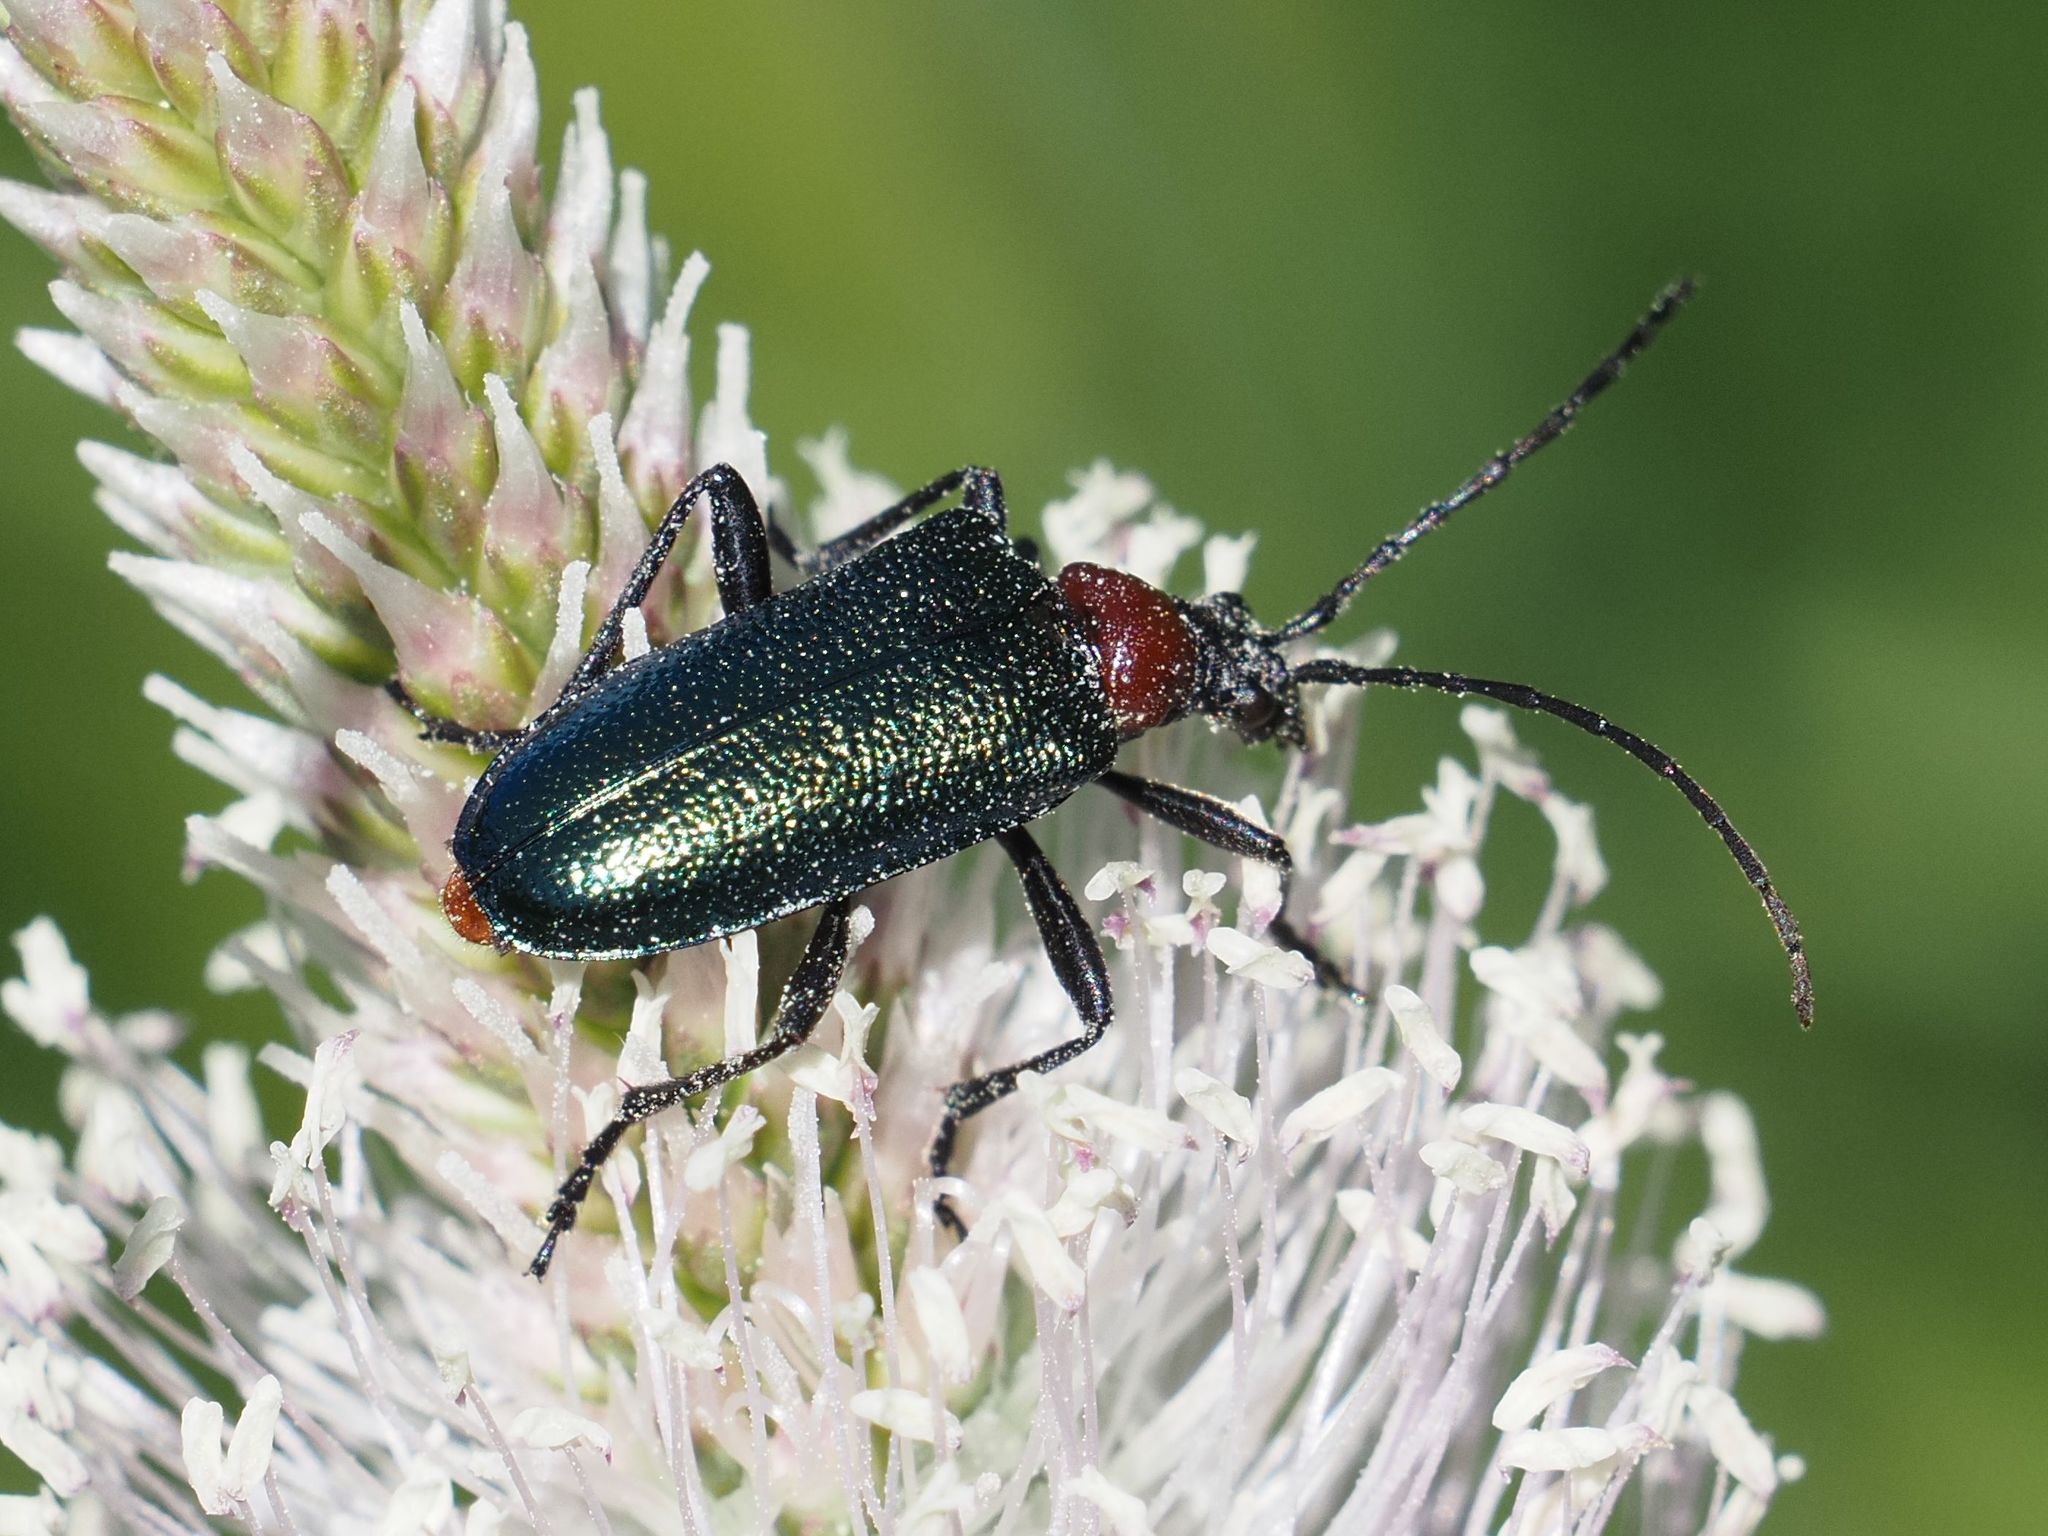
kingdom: Animalia
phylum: Arthropoda
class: Insecta
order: Coleoptera
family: Cerambycidae
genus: Gaurotes
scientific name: Gaurotes virginea
